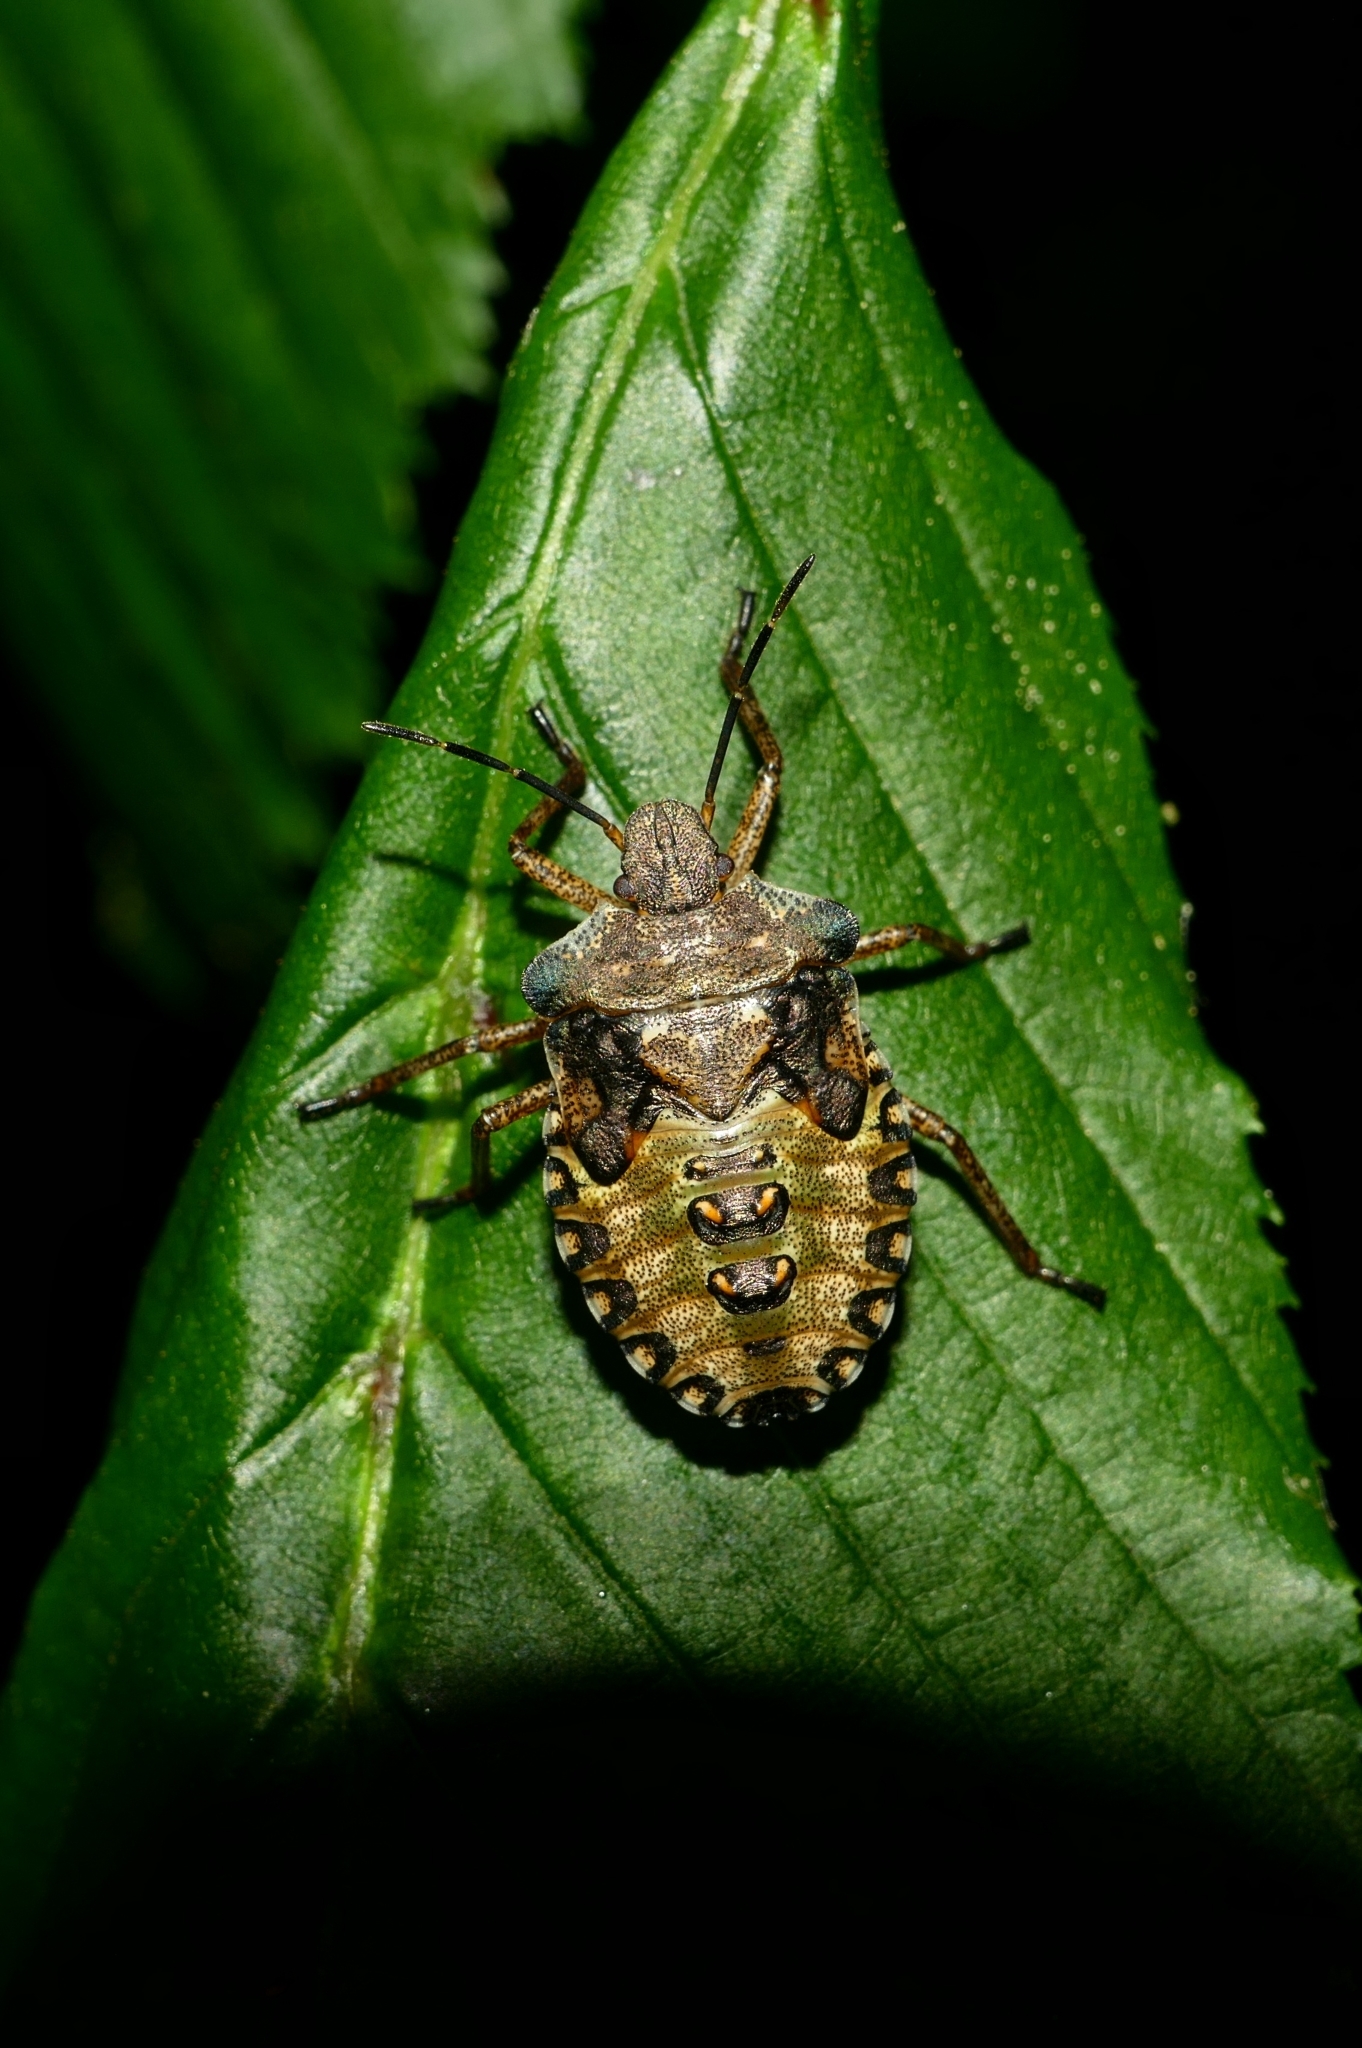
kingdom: Animalia
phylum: Arthropoda
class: Insecta
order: Hemiptera
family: Pentatomidae
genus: Pentatoma
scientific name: Pentatoma rufipes
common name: Forest bug
